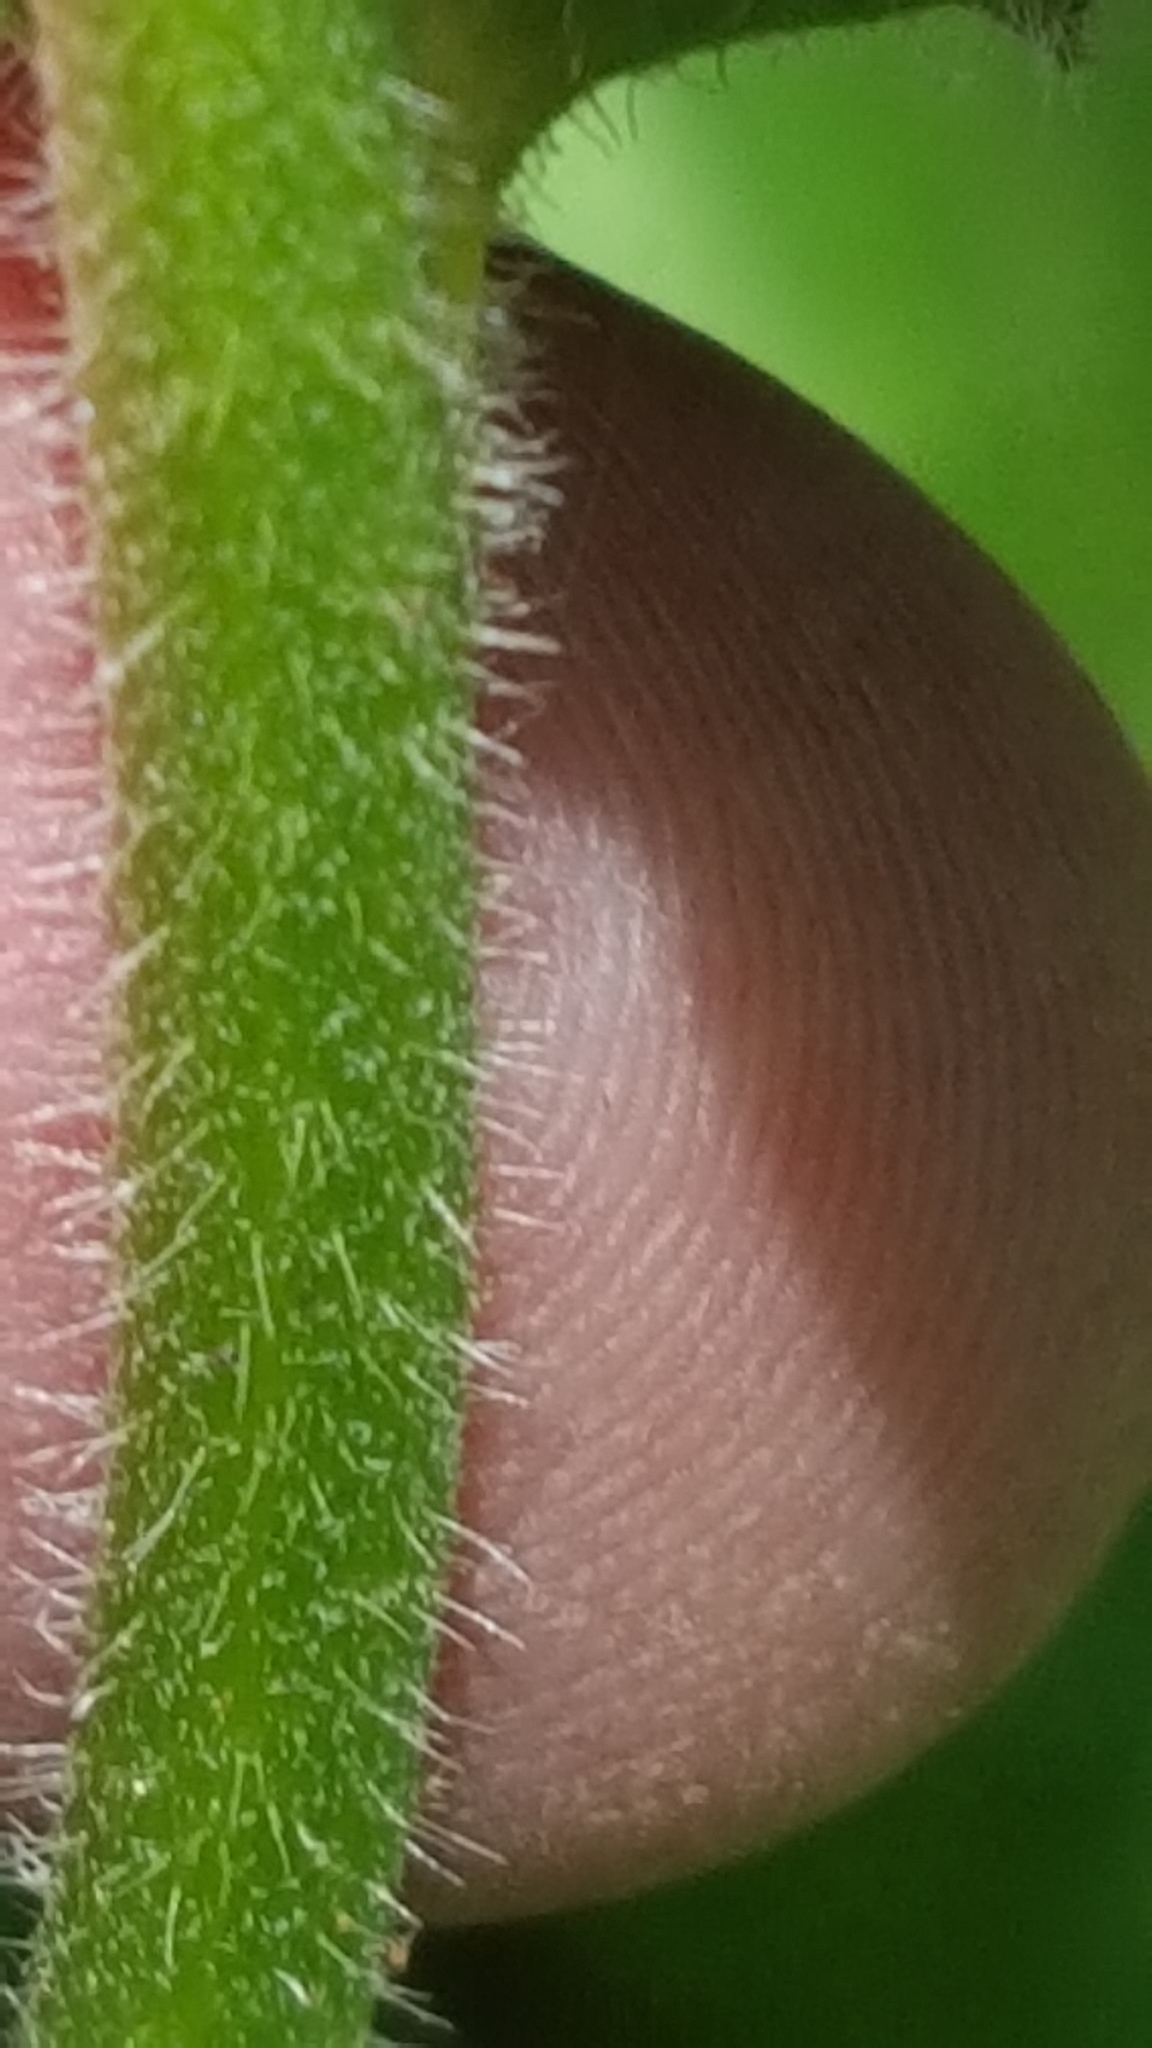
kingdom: Plantae
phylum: Tracheophyta
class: Magnoliopsida
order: Asterales
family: Asteraceae
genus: Hieracium
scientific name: Hieracium scabrum
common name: Rough hawkweed
